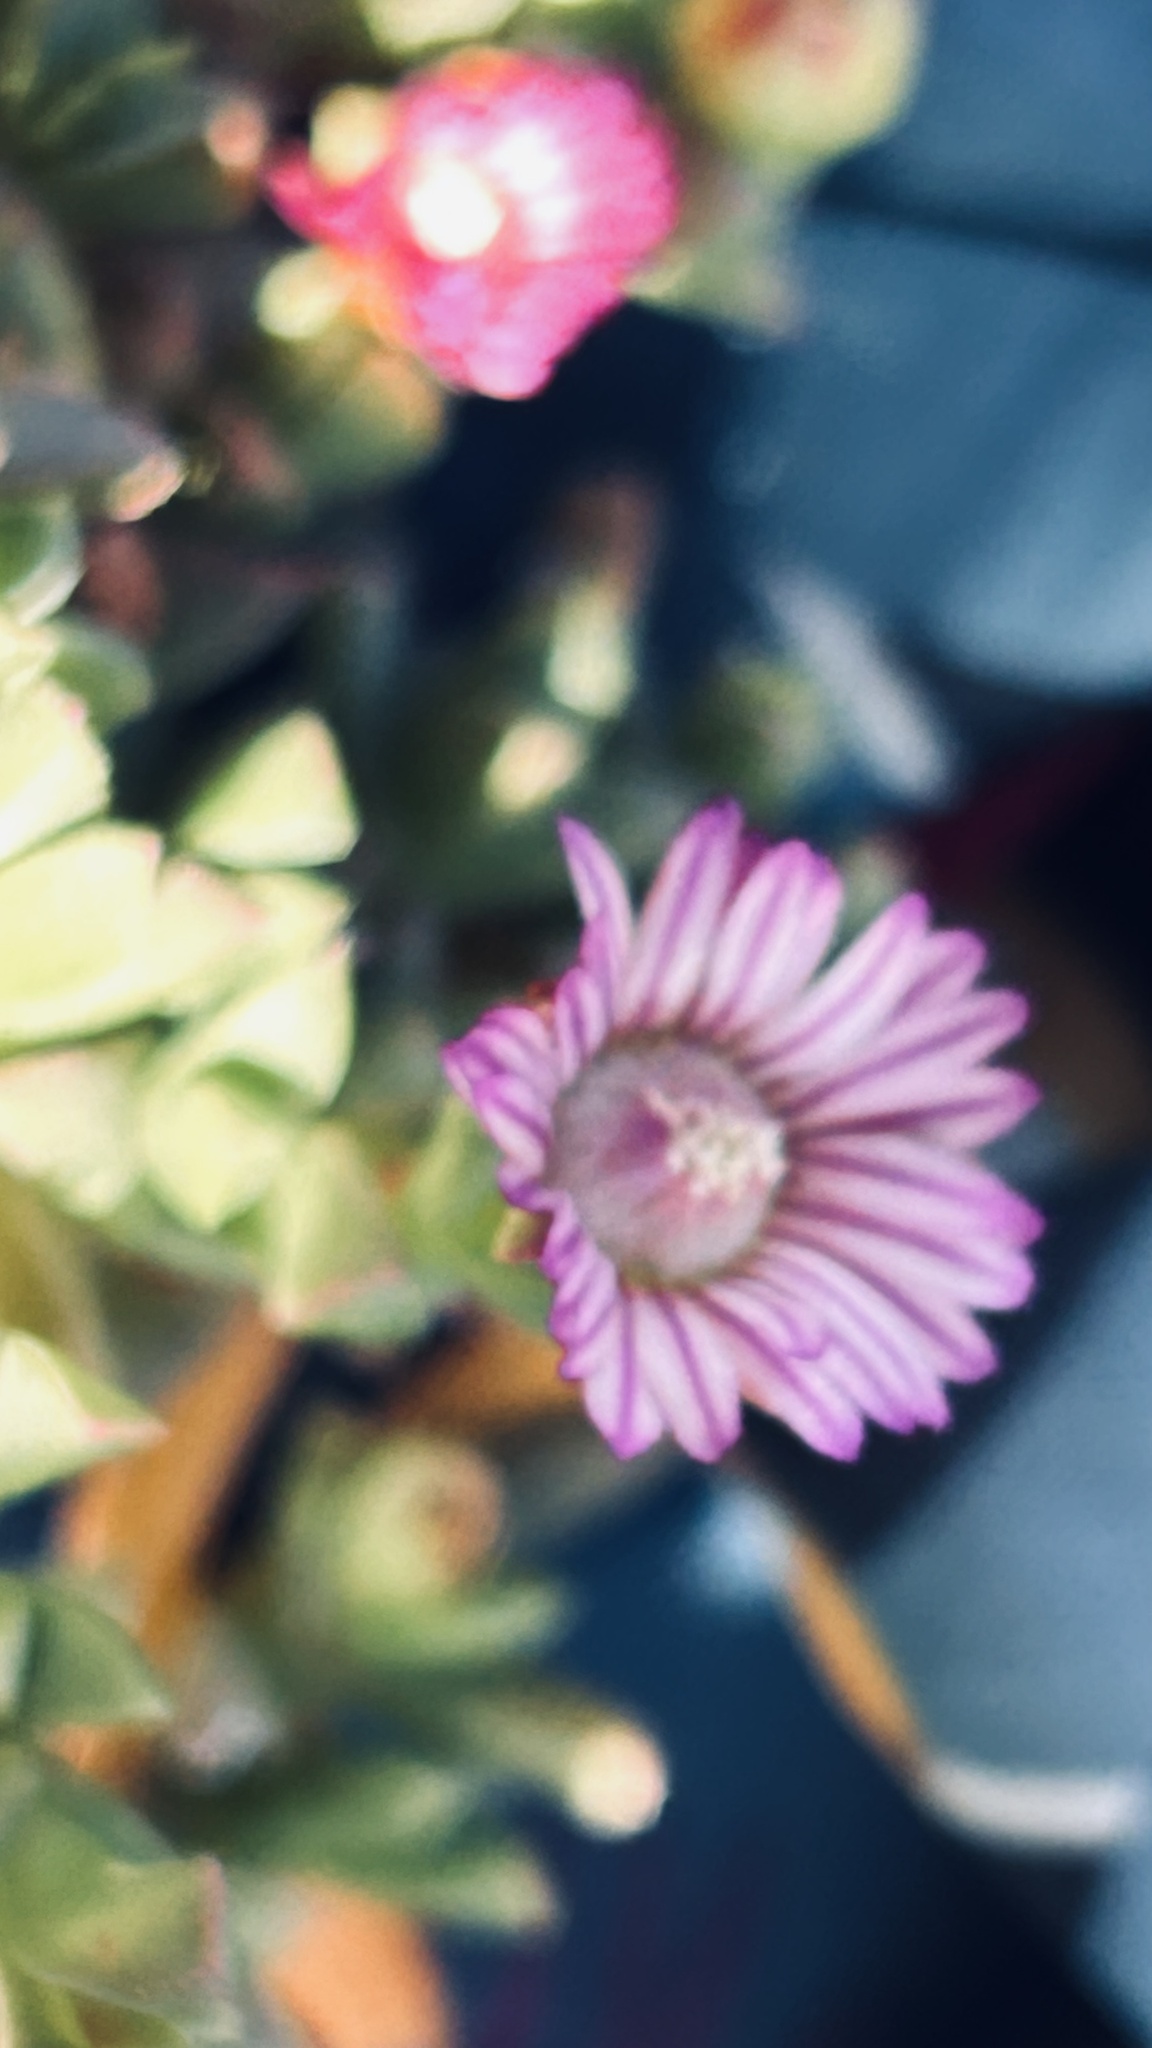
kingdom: Plantae
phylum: Tracheophyta
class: Magnoliopsida
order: Caryophyllales
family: Aizoaceae
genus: Ruschia
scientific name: Ruschia lineolata
